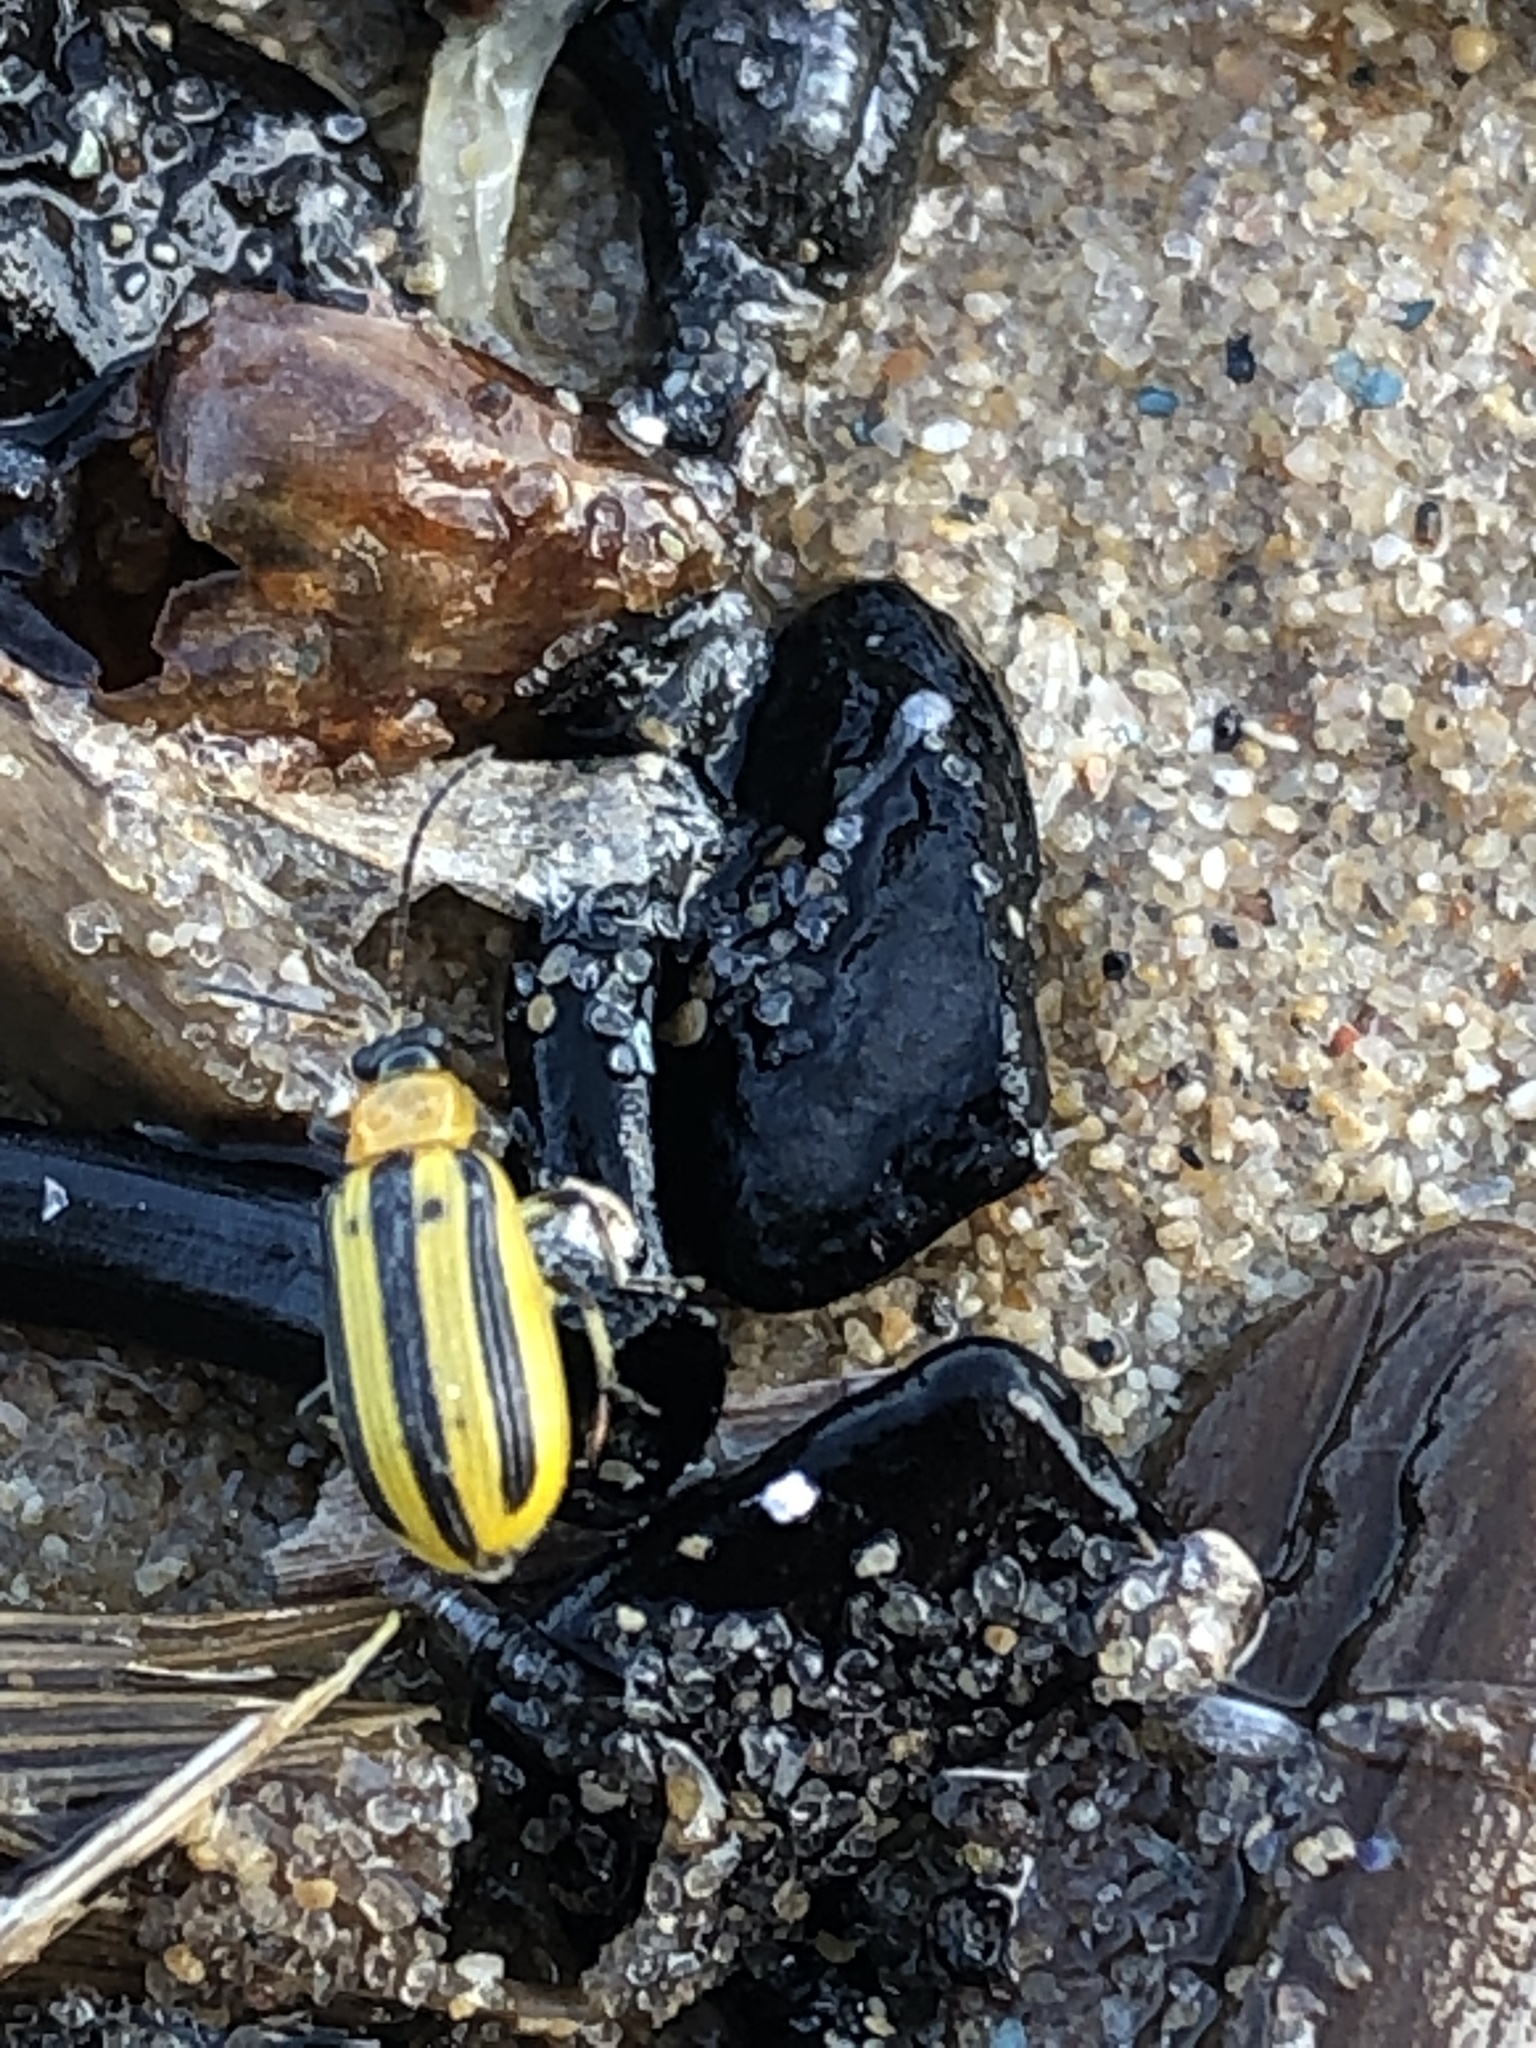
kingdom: Animalia
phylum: Arthropoda
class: Insecta
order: Coleoptera
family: Chrysomelidae
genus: Acalymma
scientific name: Acalymma vittatum
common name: Striped cucumber beetle
